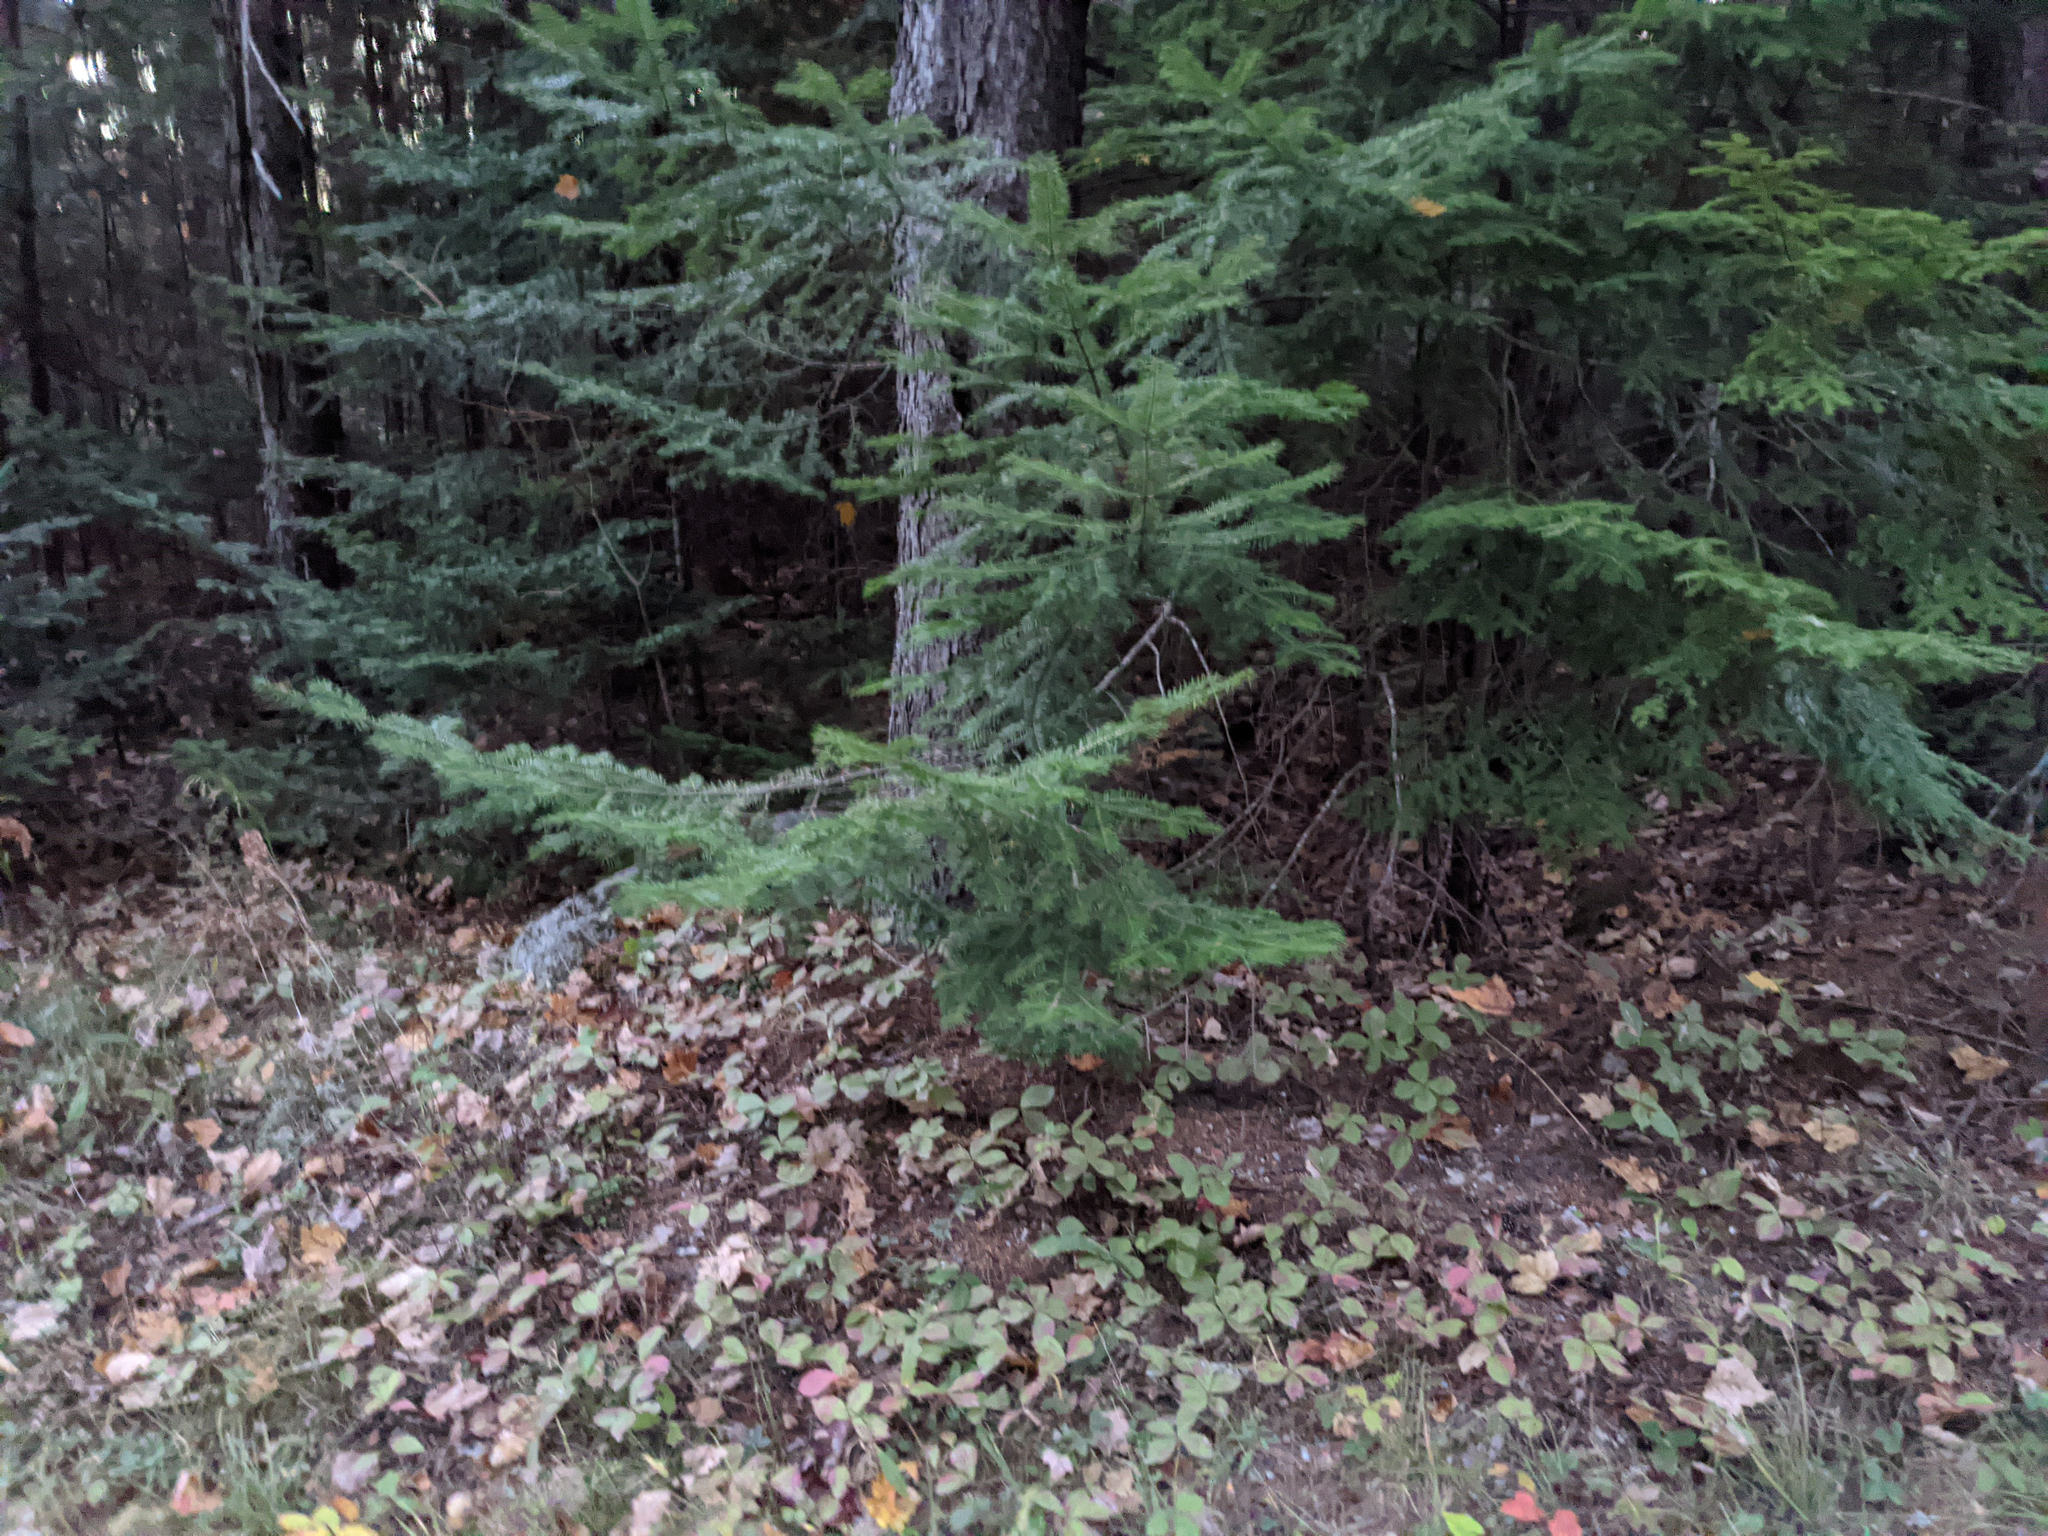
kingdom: Plantae
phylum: Tracheophyta
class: Pinopsida
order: Pinales
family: Pinaceae
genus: Abies
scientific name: Abies balsamea
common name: Balsam fir
